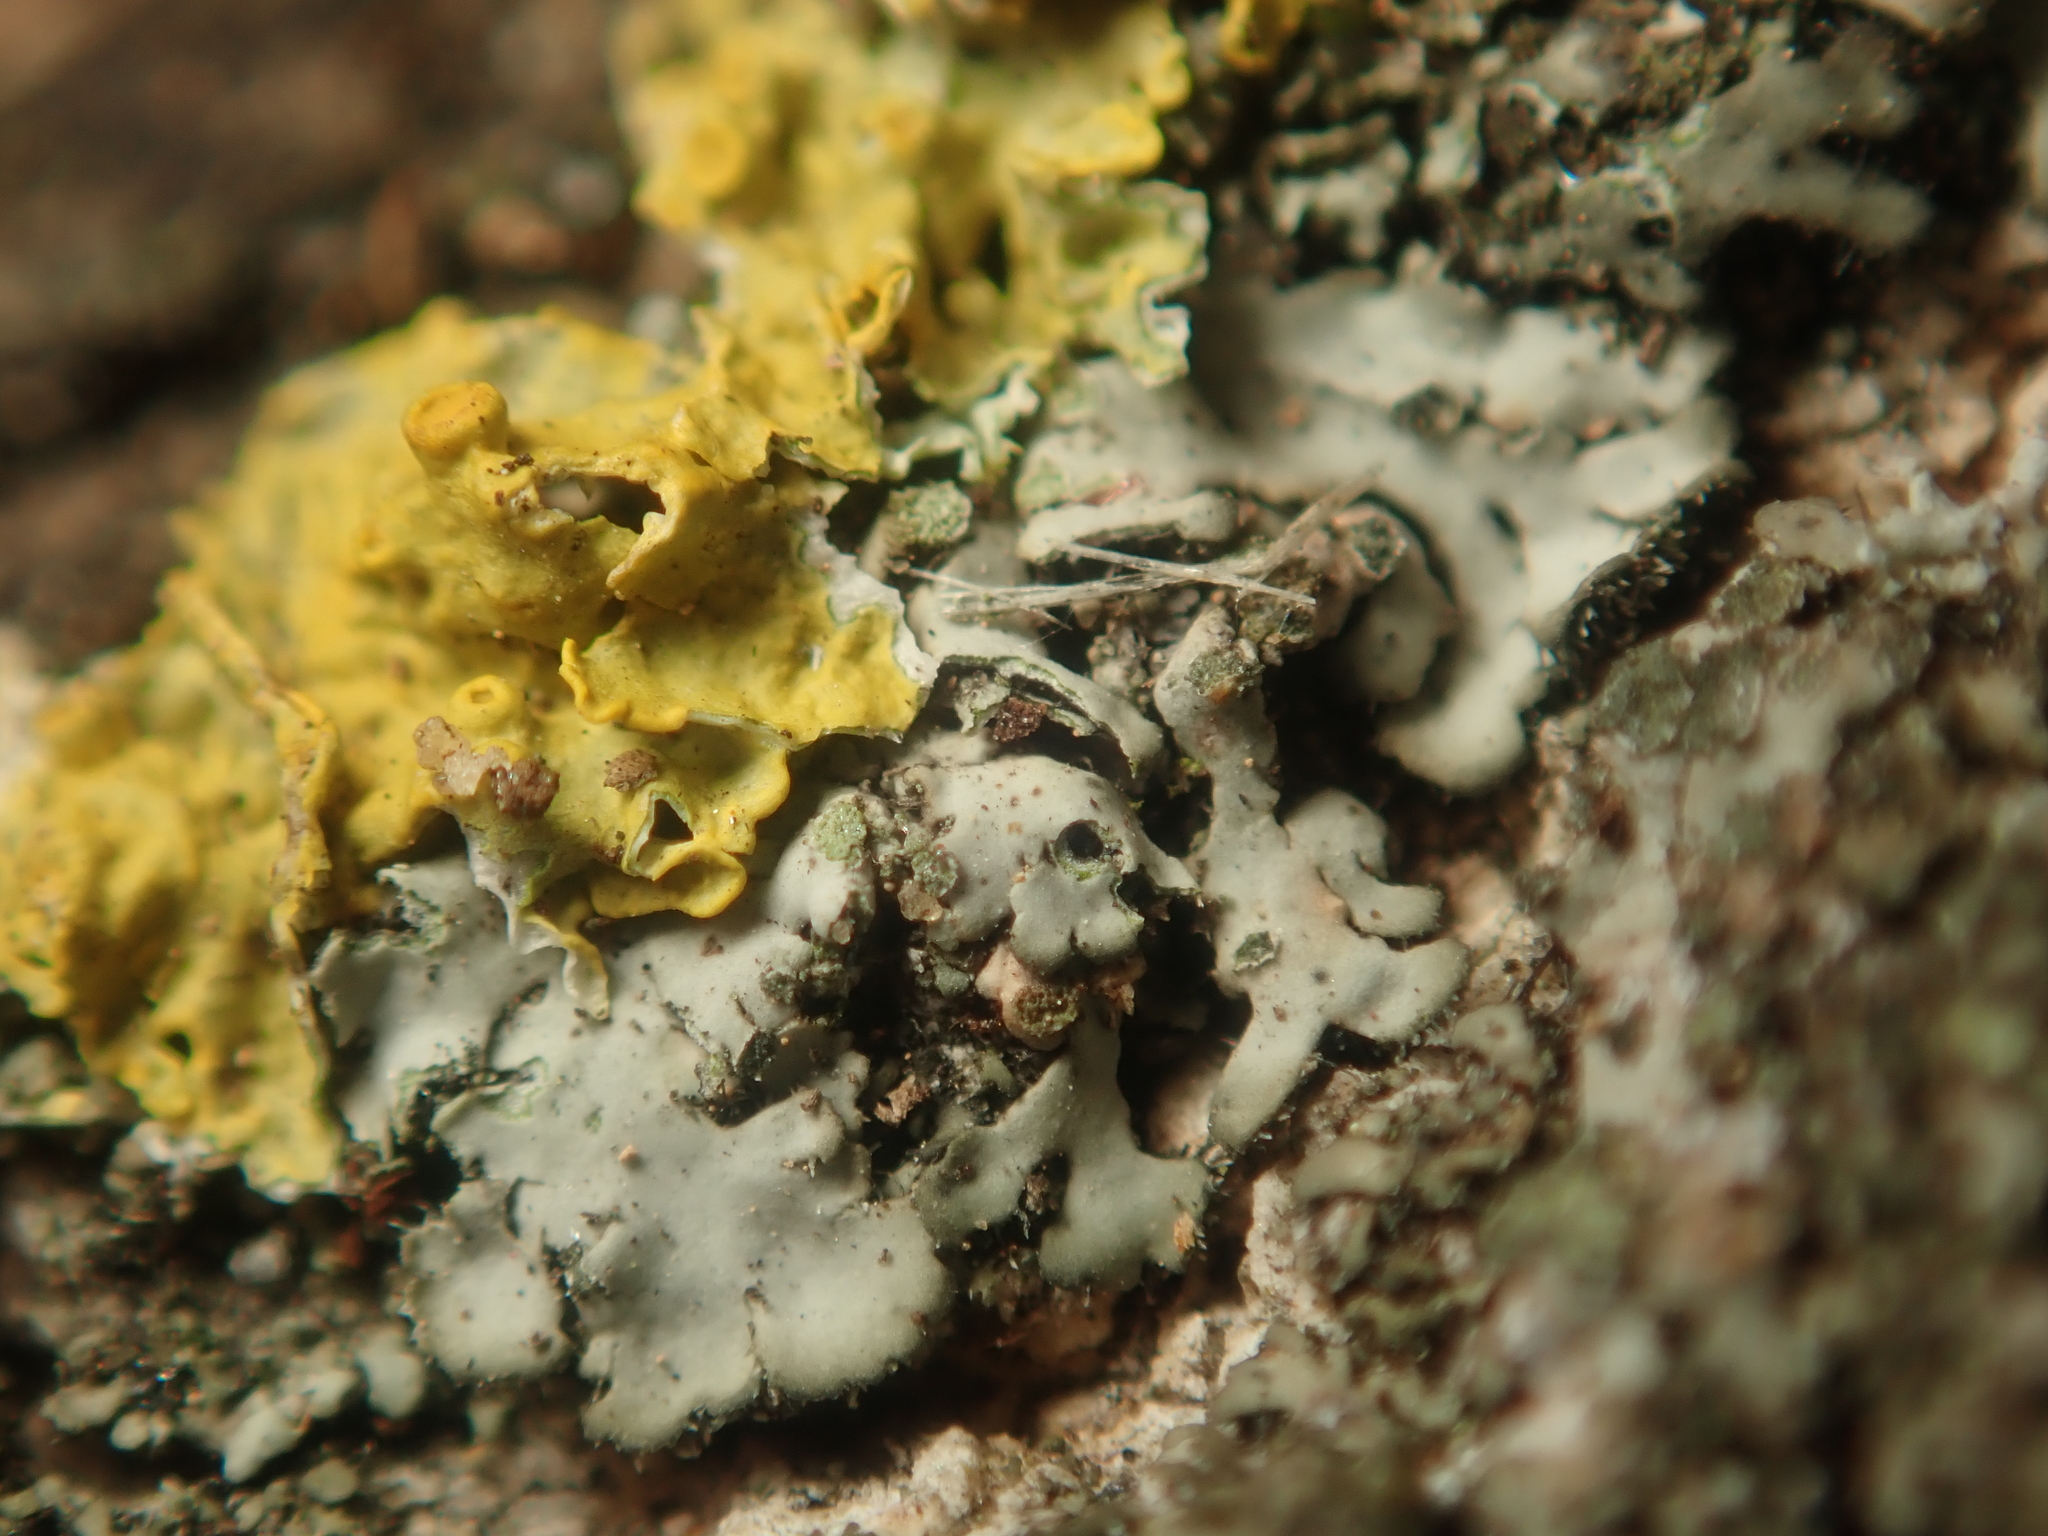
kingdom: Fungi
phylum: Ascomycota
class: Lecanoromycetes
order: Caliciales
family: Physciaceae
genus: Phaeophyscia
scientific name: Phaeophyscia orbicularis
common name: Mealy shadow lichen
